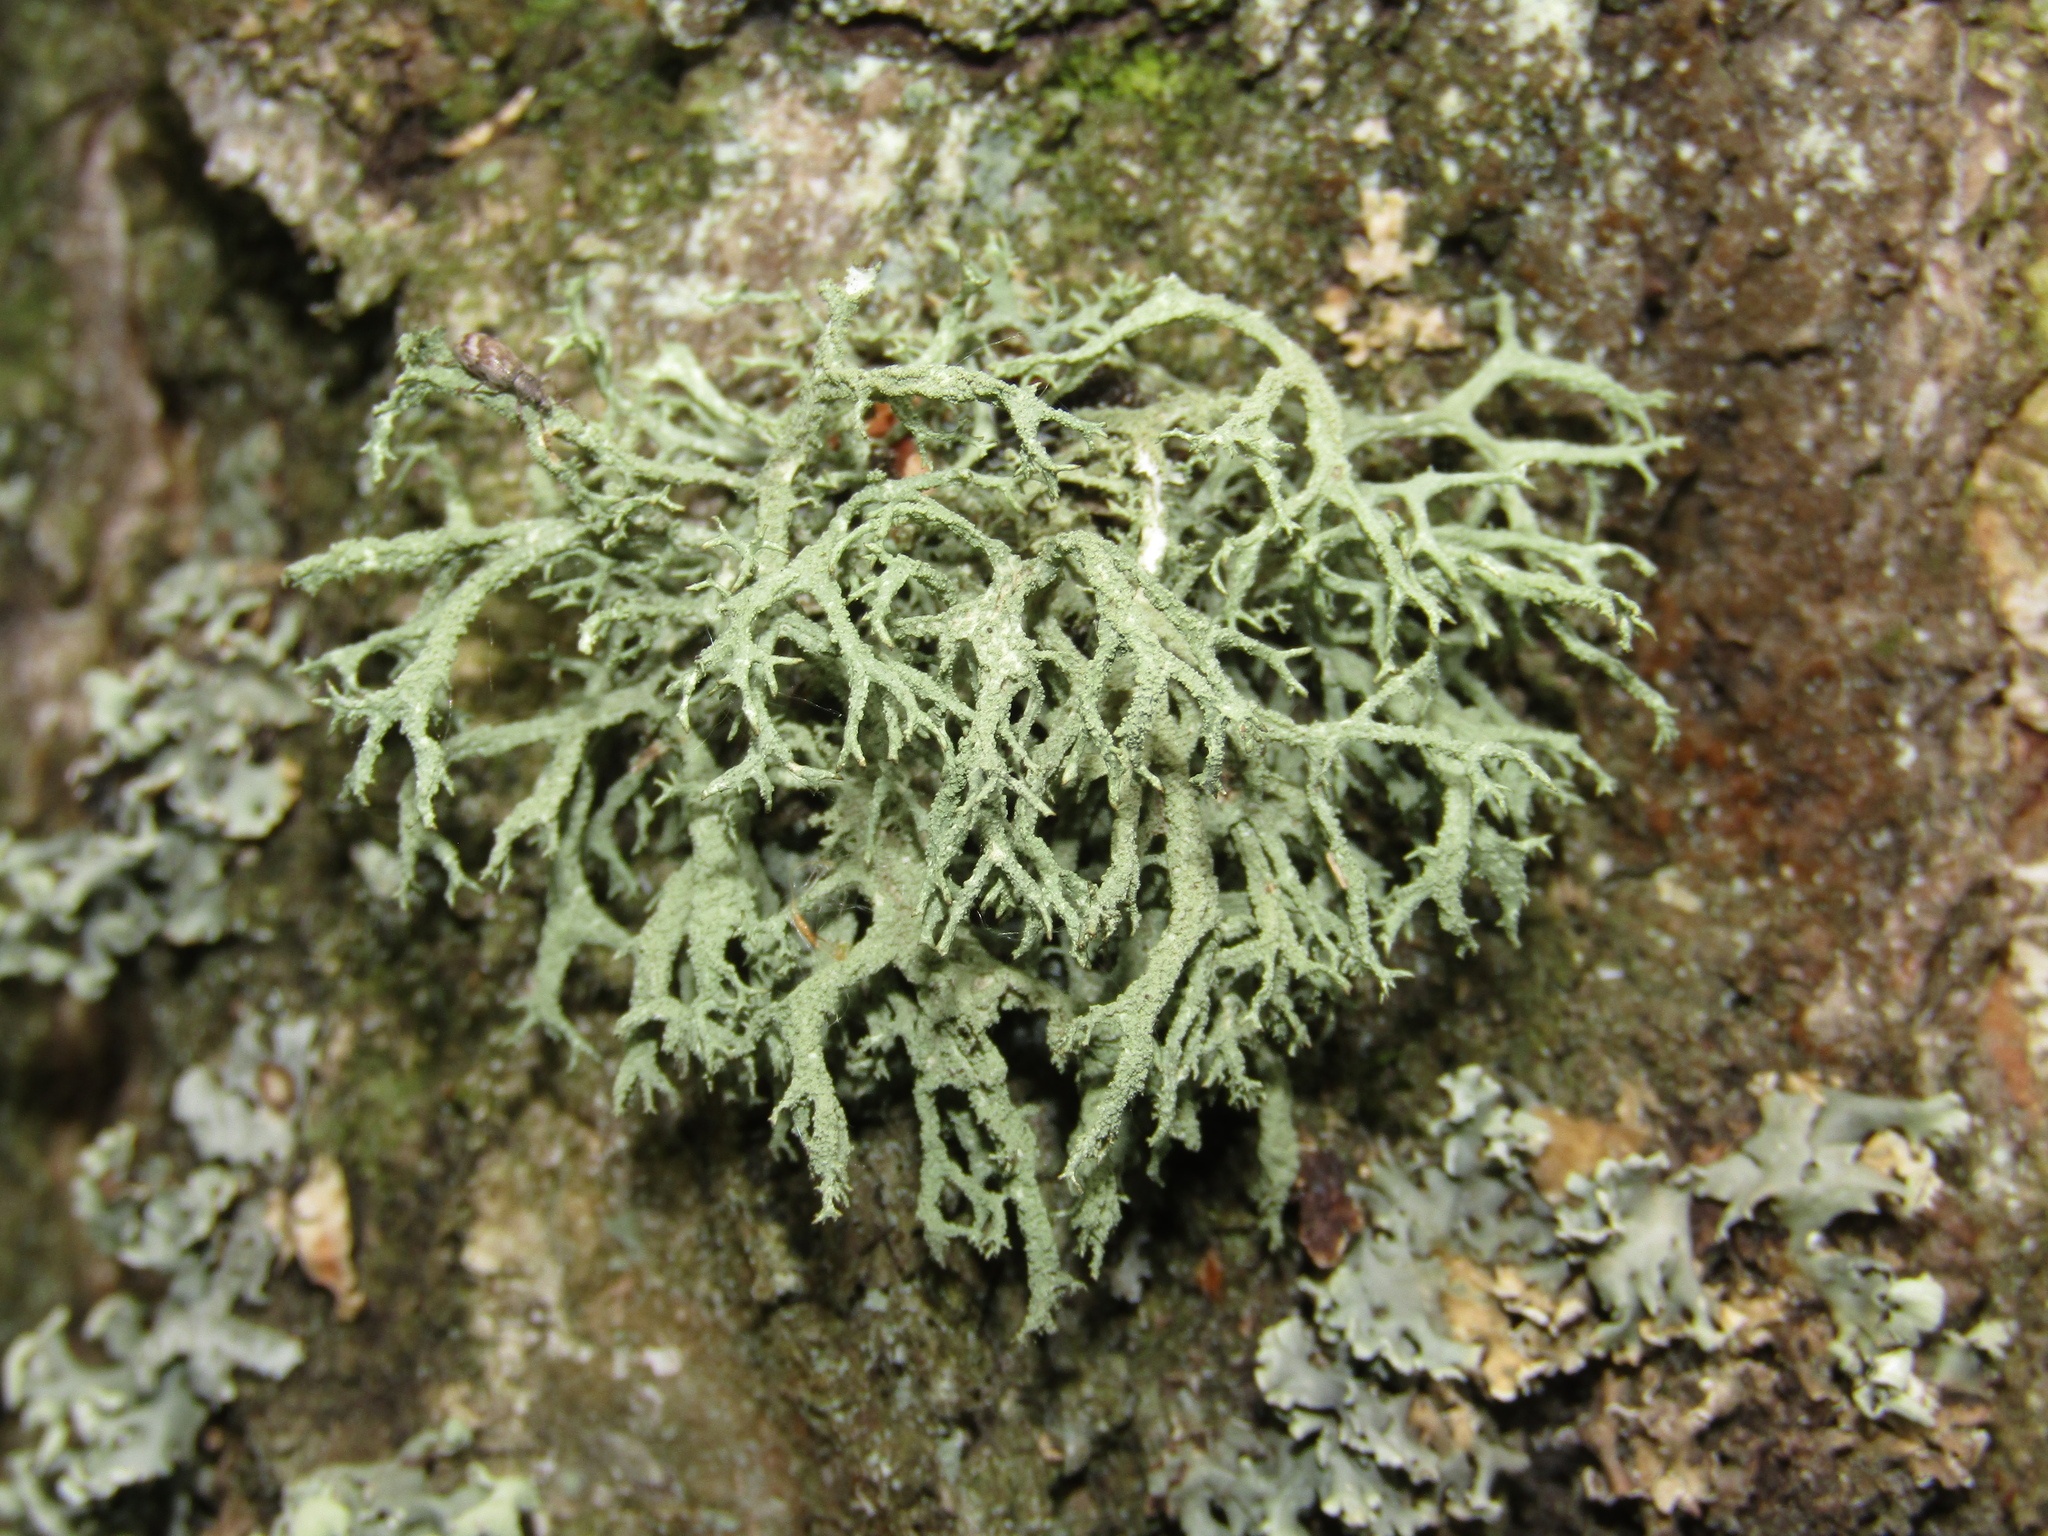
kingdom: Fungi
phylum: Ascomycota
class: Lecanoromycetes
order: Lecanorales
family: Parmeliaceae
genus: Evernia
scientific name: Evernia mesomorpha
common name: Boreal oak moss lichen
